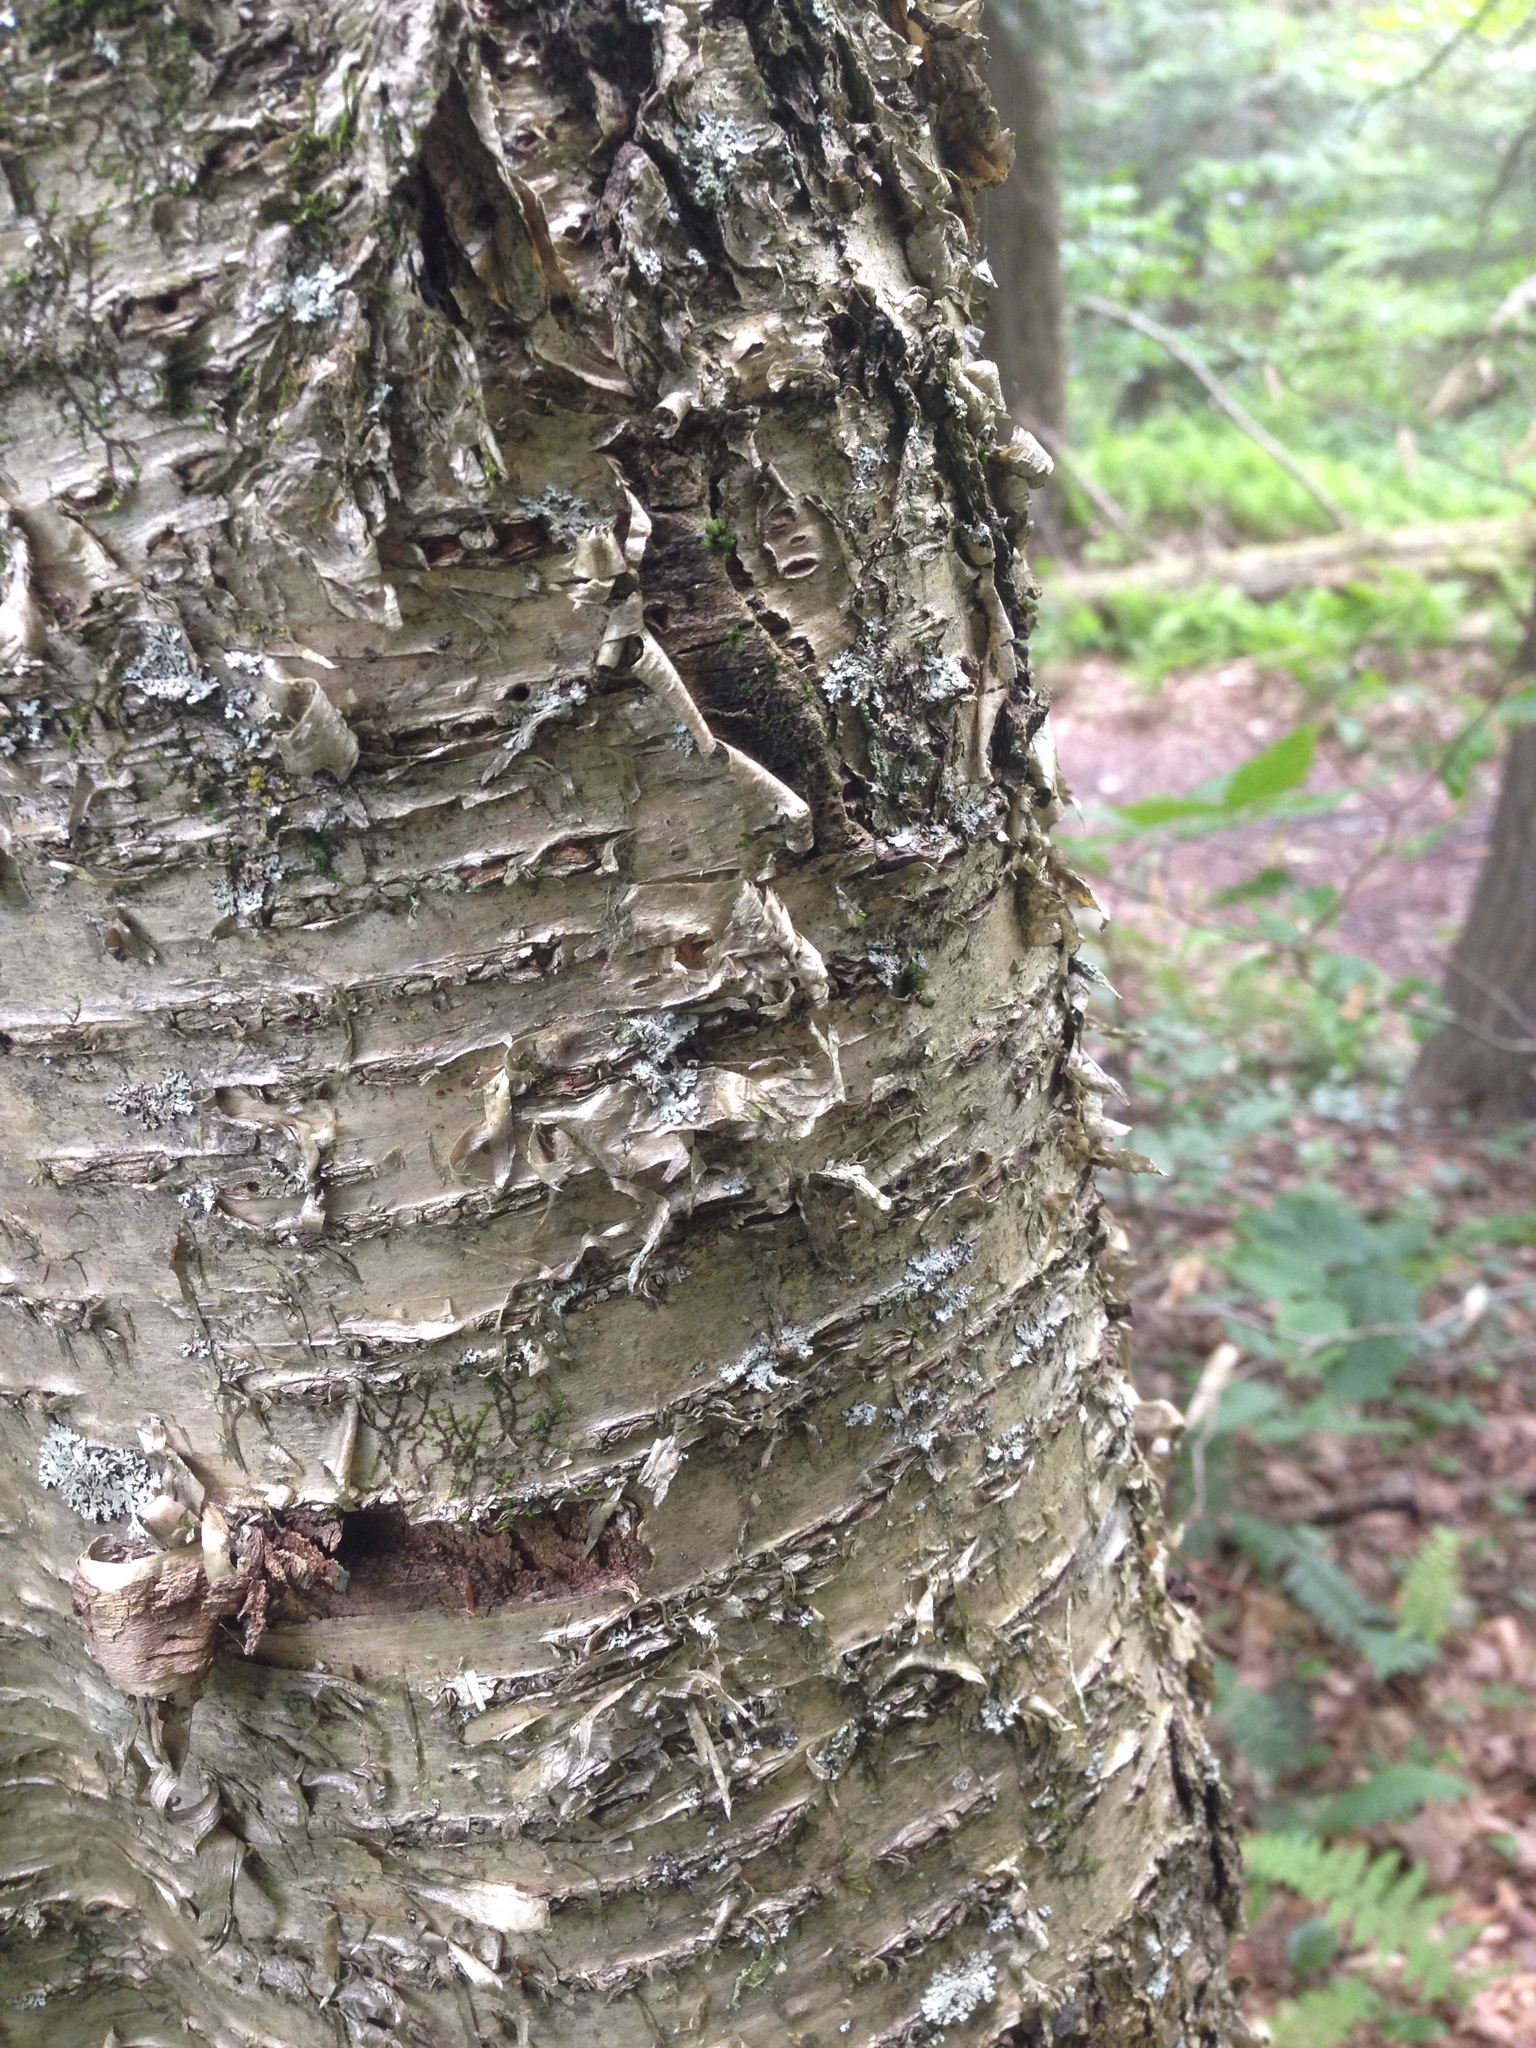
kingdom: Plantae
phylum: Tracheophyta
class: Magnoliopsida
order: Fagales
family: Betulaceae
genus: Betula
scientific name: Betula alleghaniensis
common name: Yellow birch
